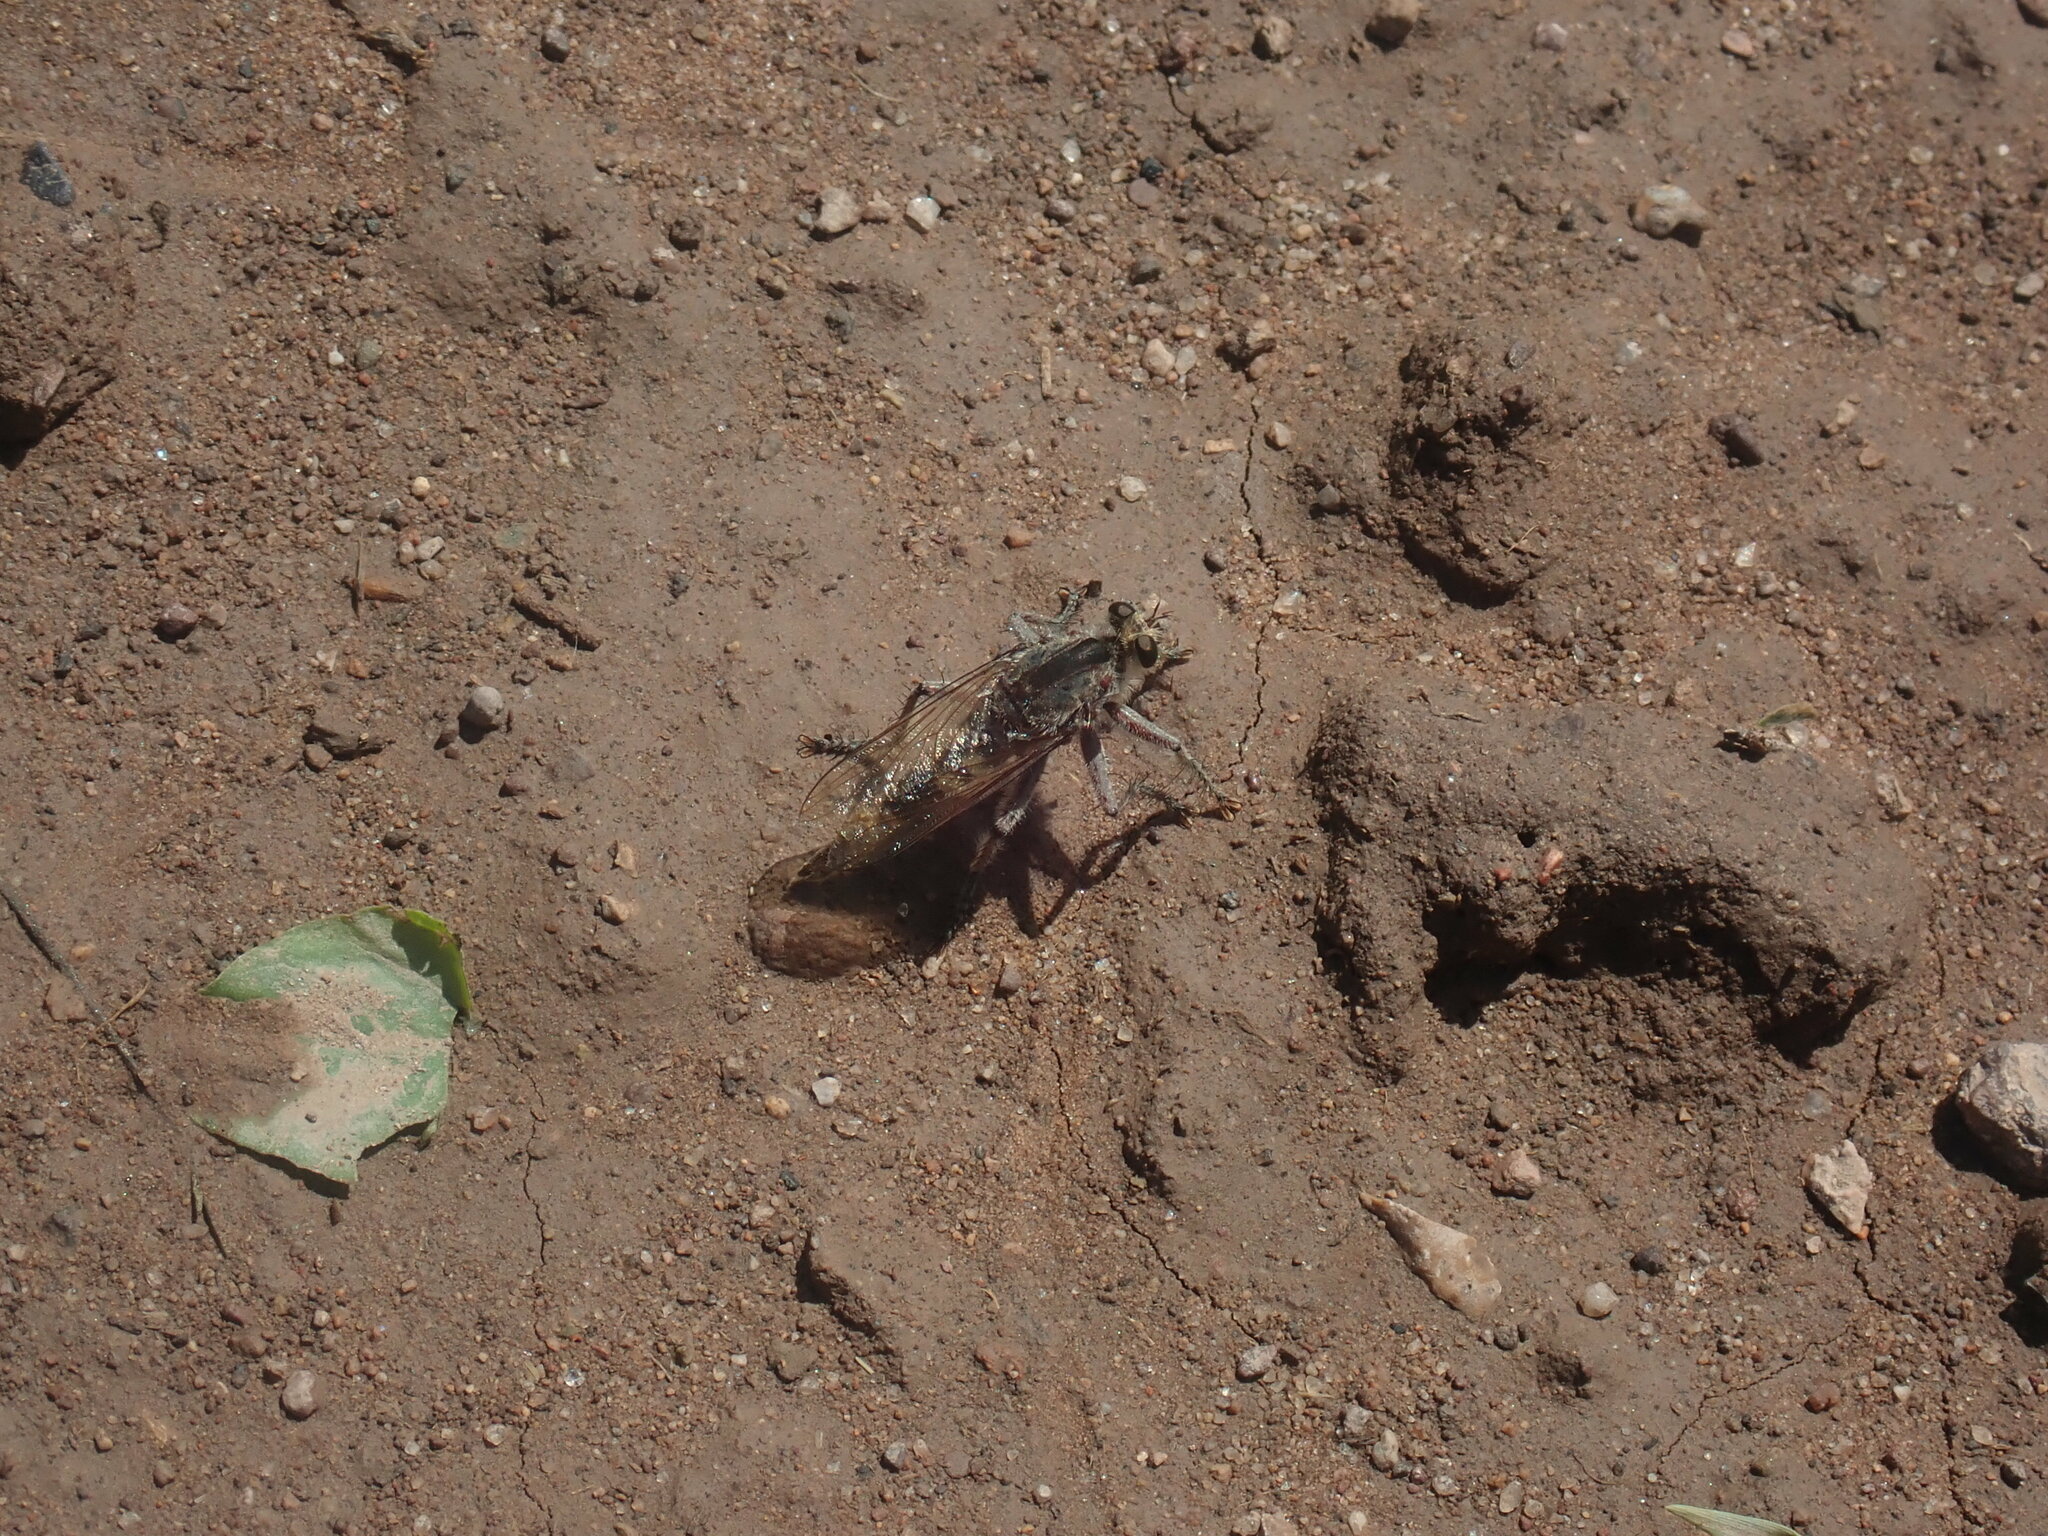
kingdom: Animalia
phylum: Arthropoda
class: Insecta
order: Diptera
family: Asilidae
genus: Triorla
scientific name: Triorla interrupta
